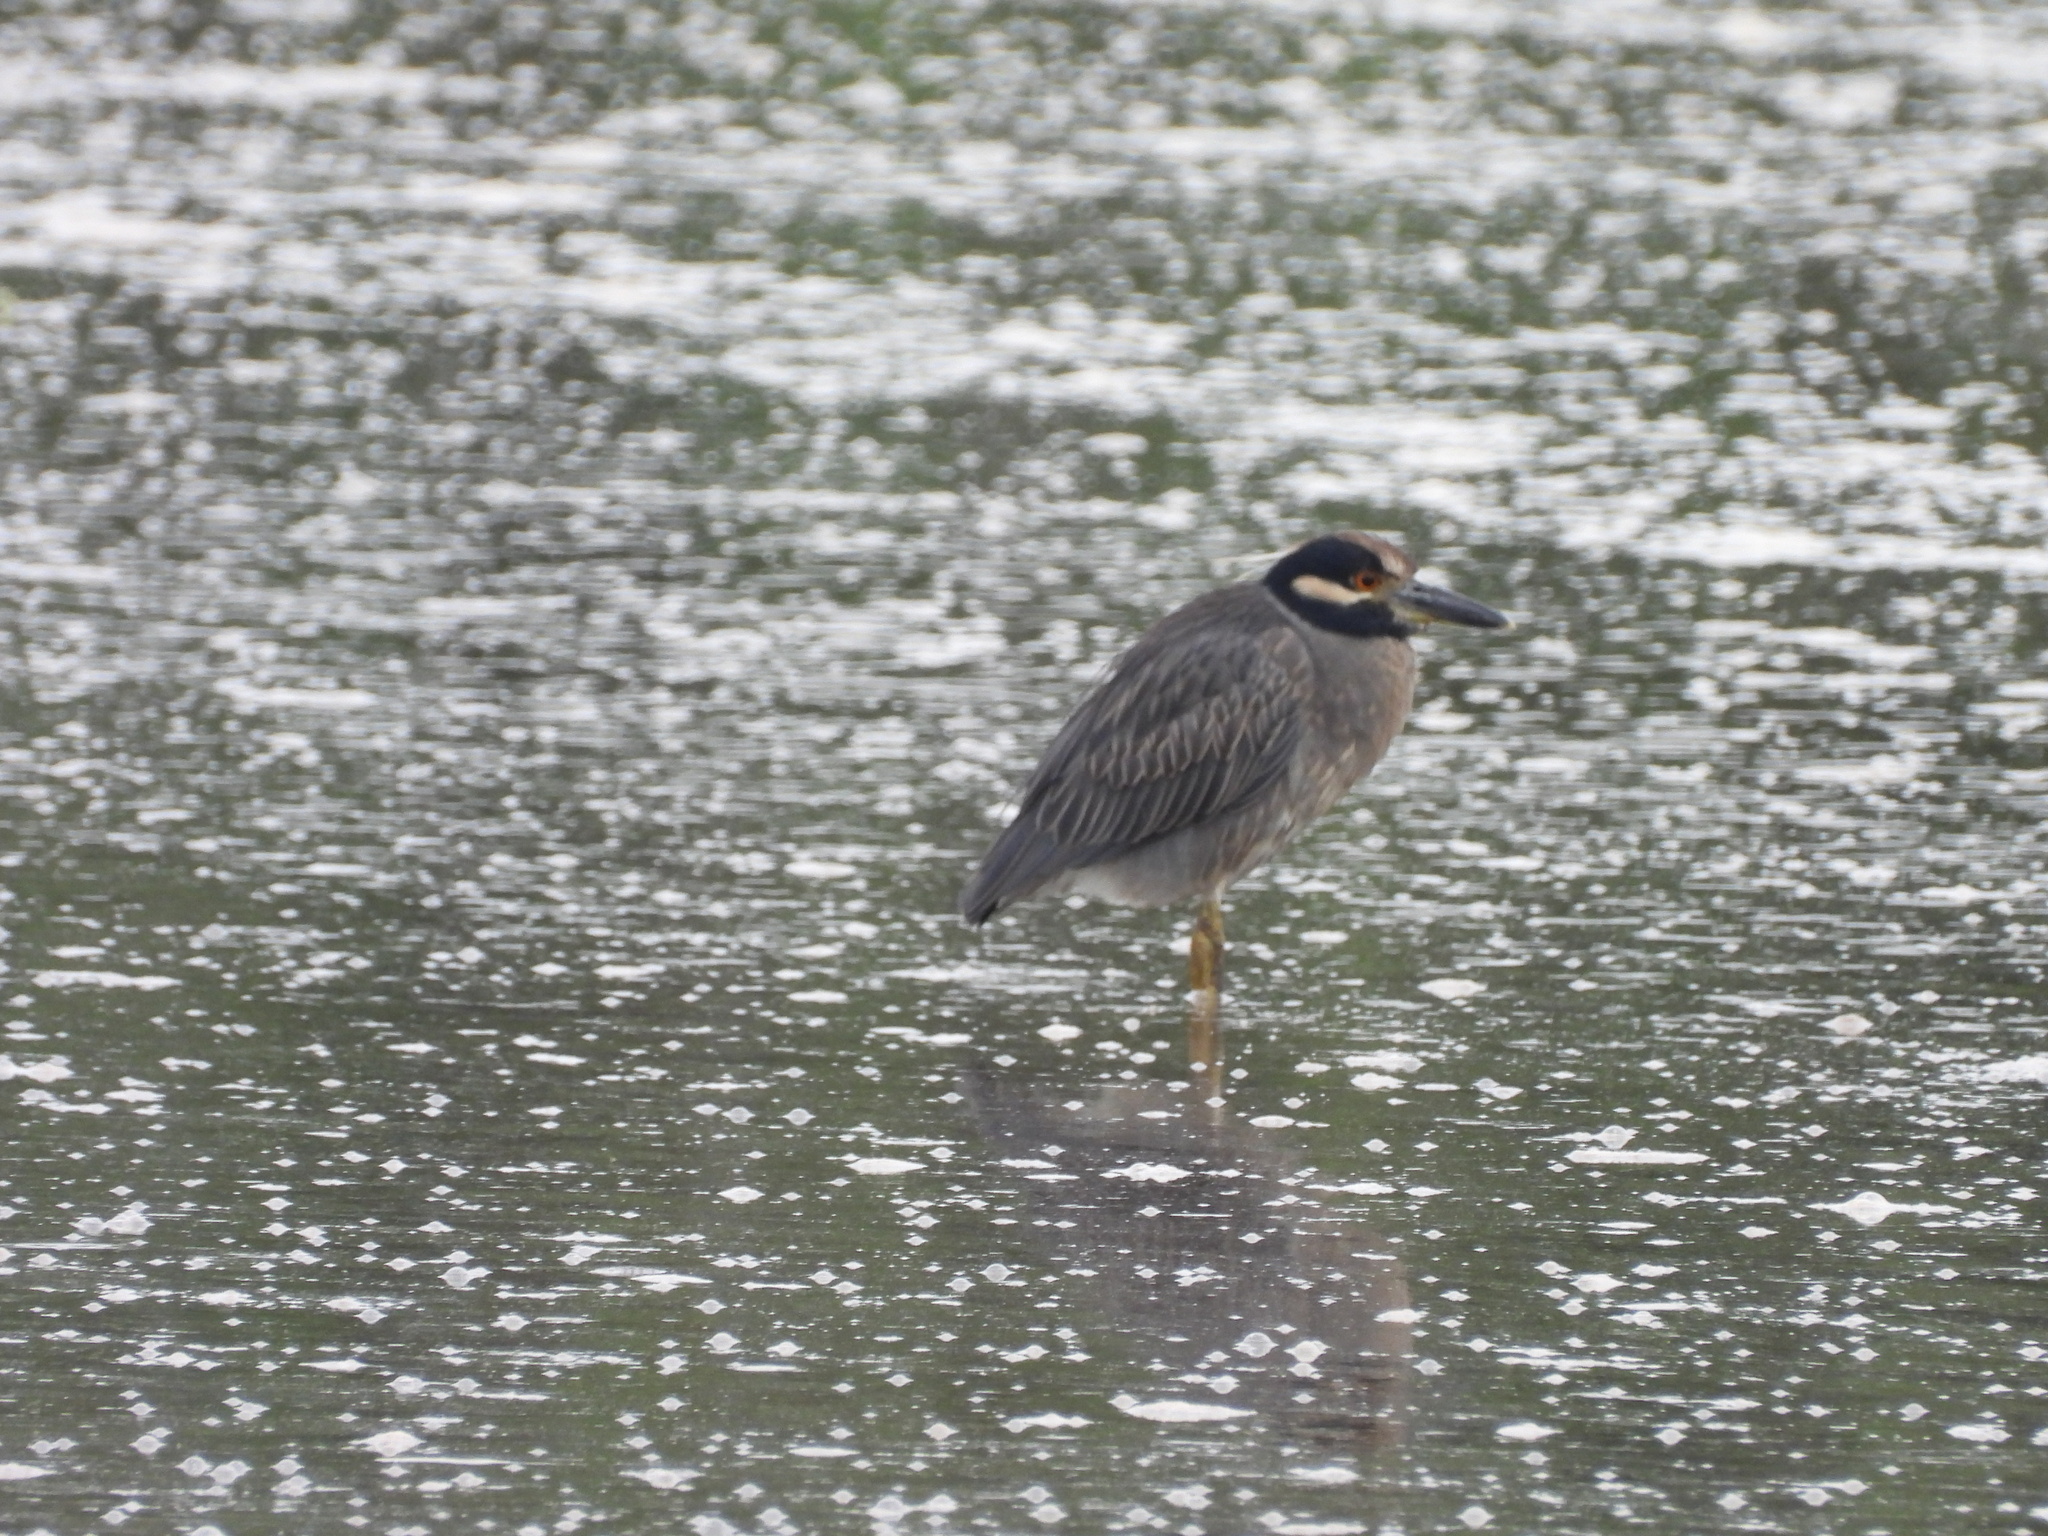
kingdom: Animalia
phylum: Chordata
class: Aves
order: Pelecaniformes
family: Ardeidae
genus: Nyctanassa
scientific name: Nyctanassa violacea
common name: Yellow-crowned night heron
